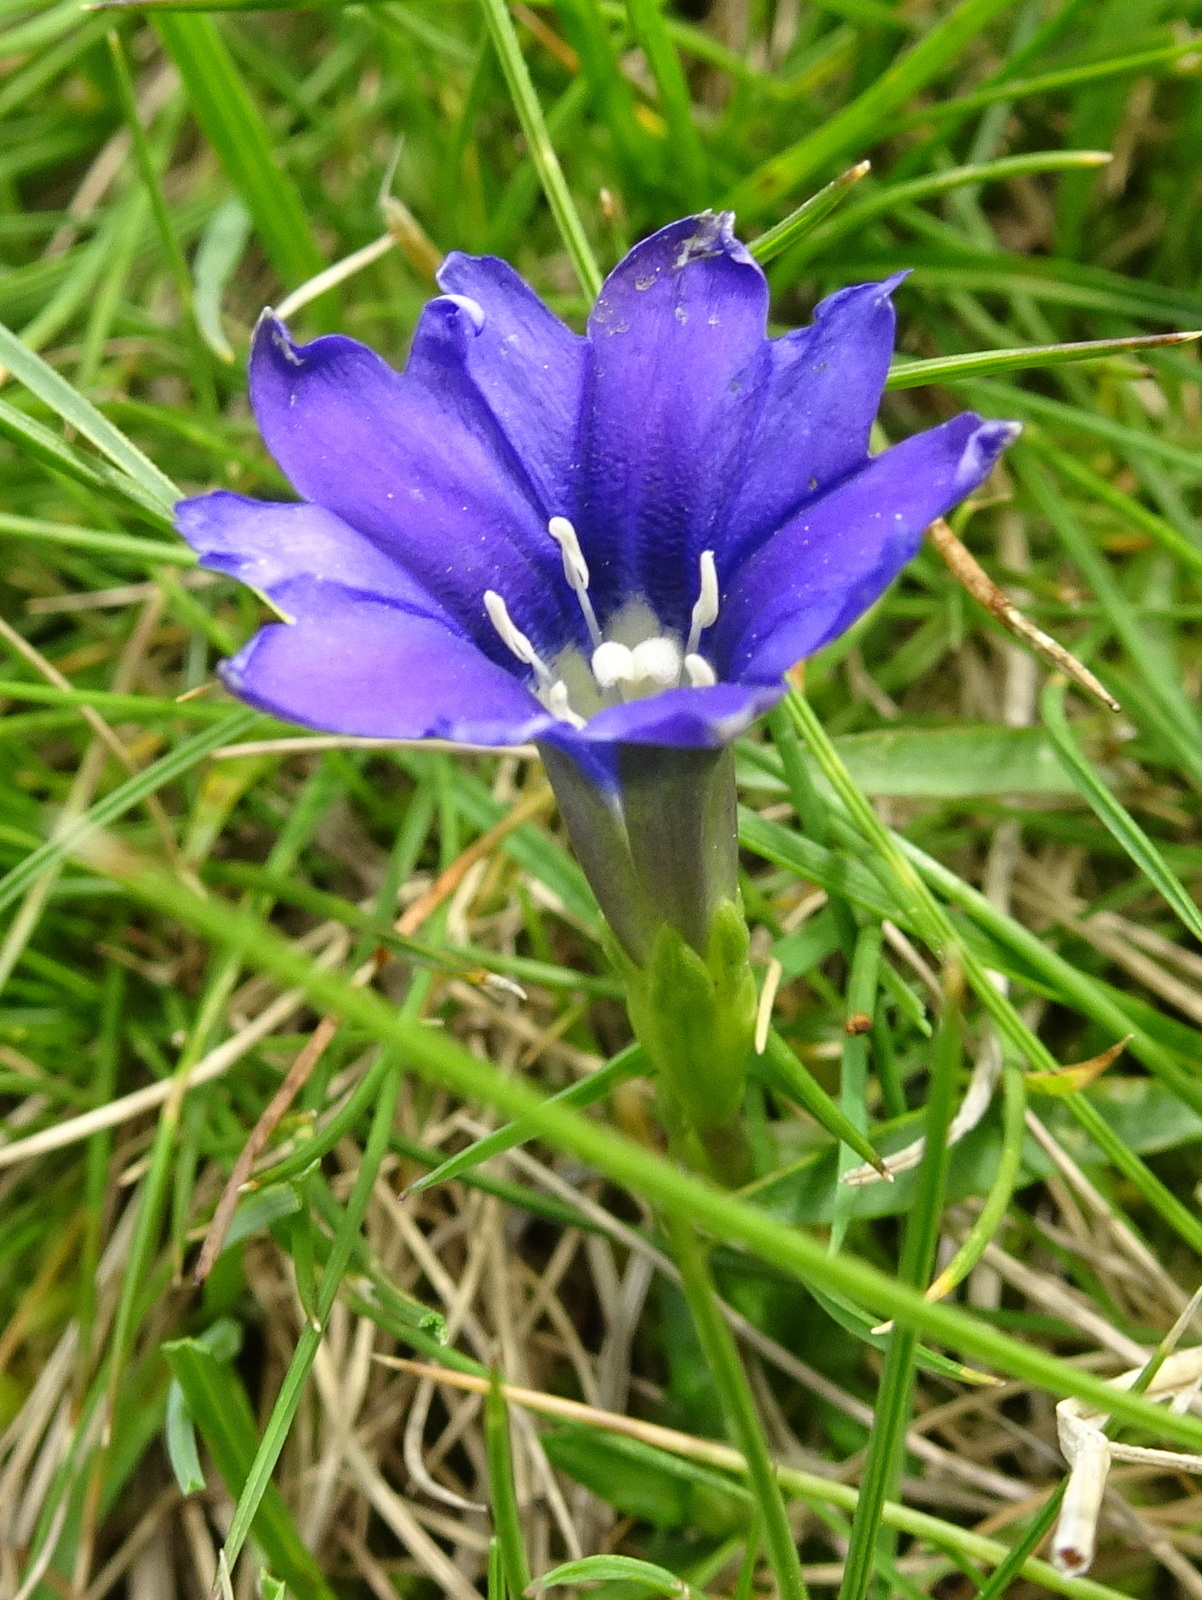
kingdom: Plantae
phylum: Tracheophyta
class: Magnoliopsida
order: Gentianales
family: Gentianaceae
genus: Gentiana
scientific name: Gentiana pyrenaica
